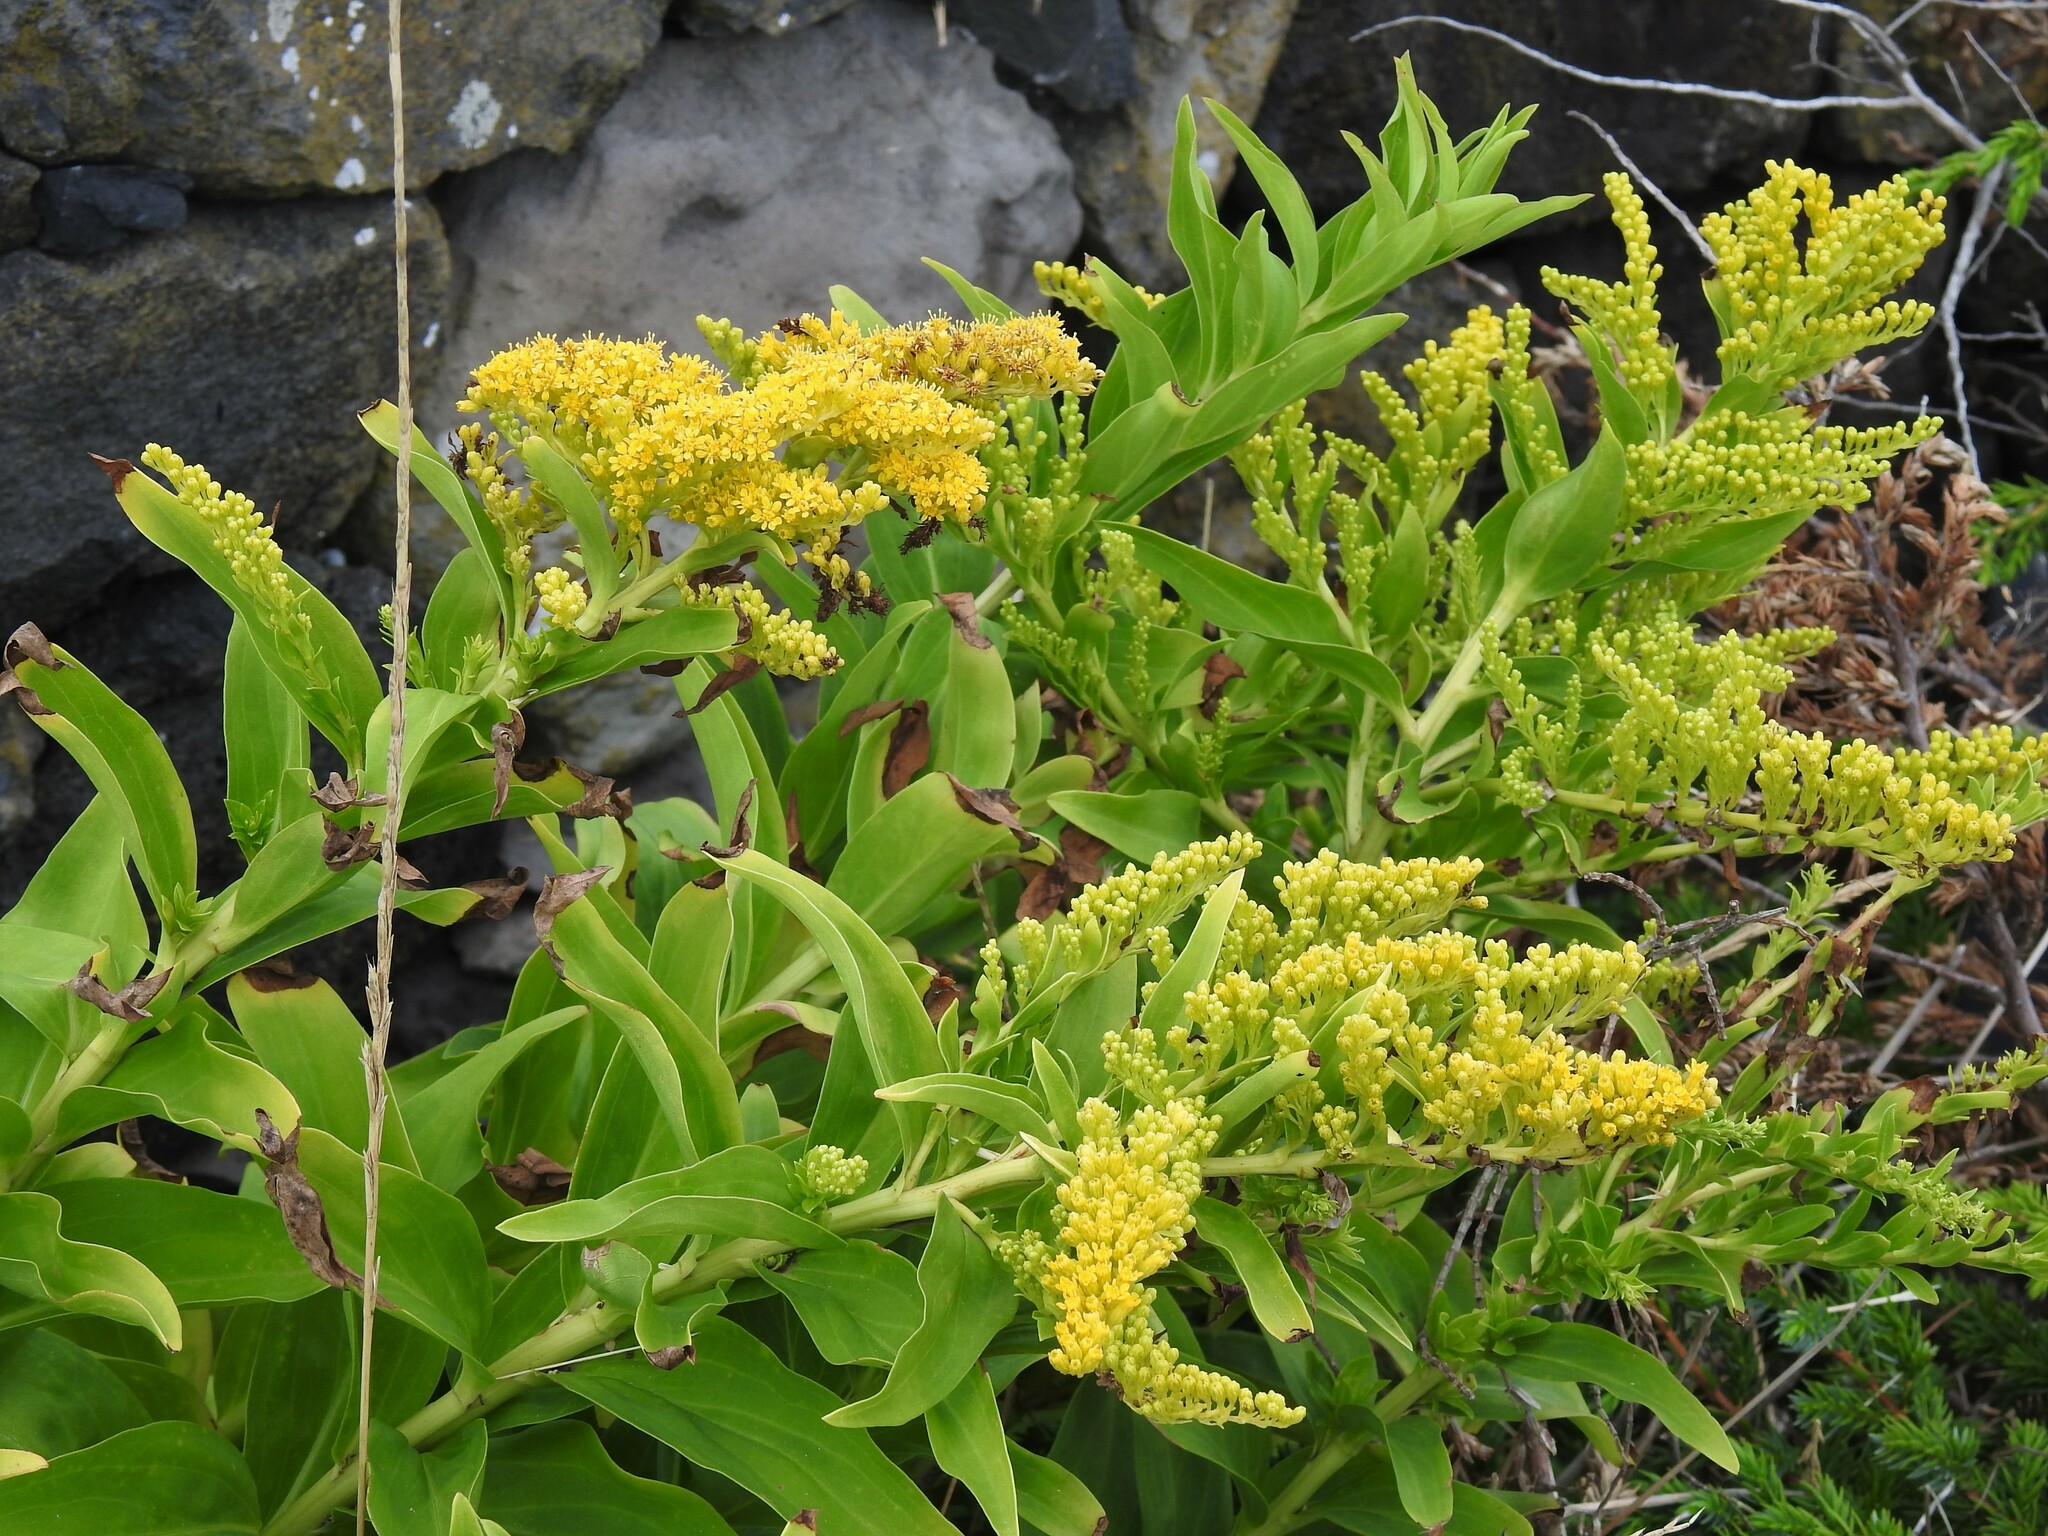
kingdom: Plantae
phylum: Tracheophyta
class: Magnoliopsida
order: Asterales
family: Asteraceae
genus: Solidago
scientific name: Solidago azorica
